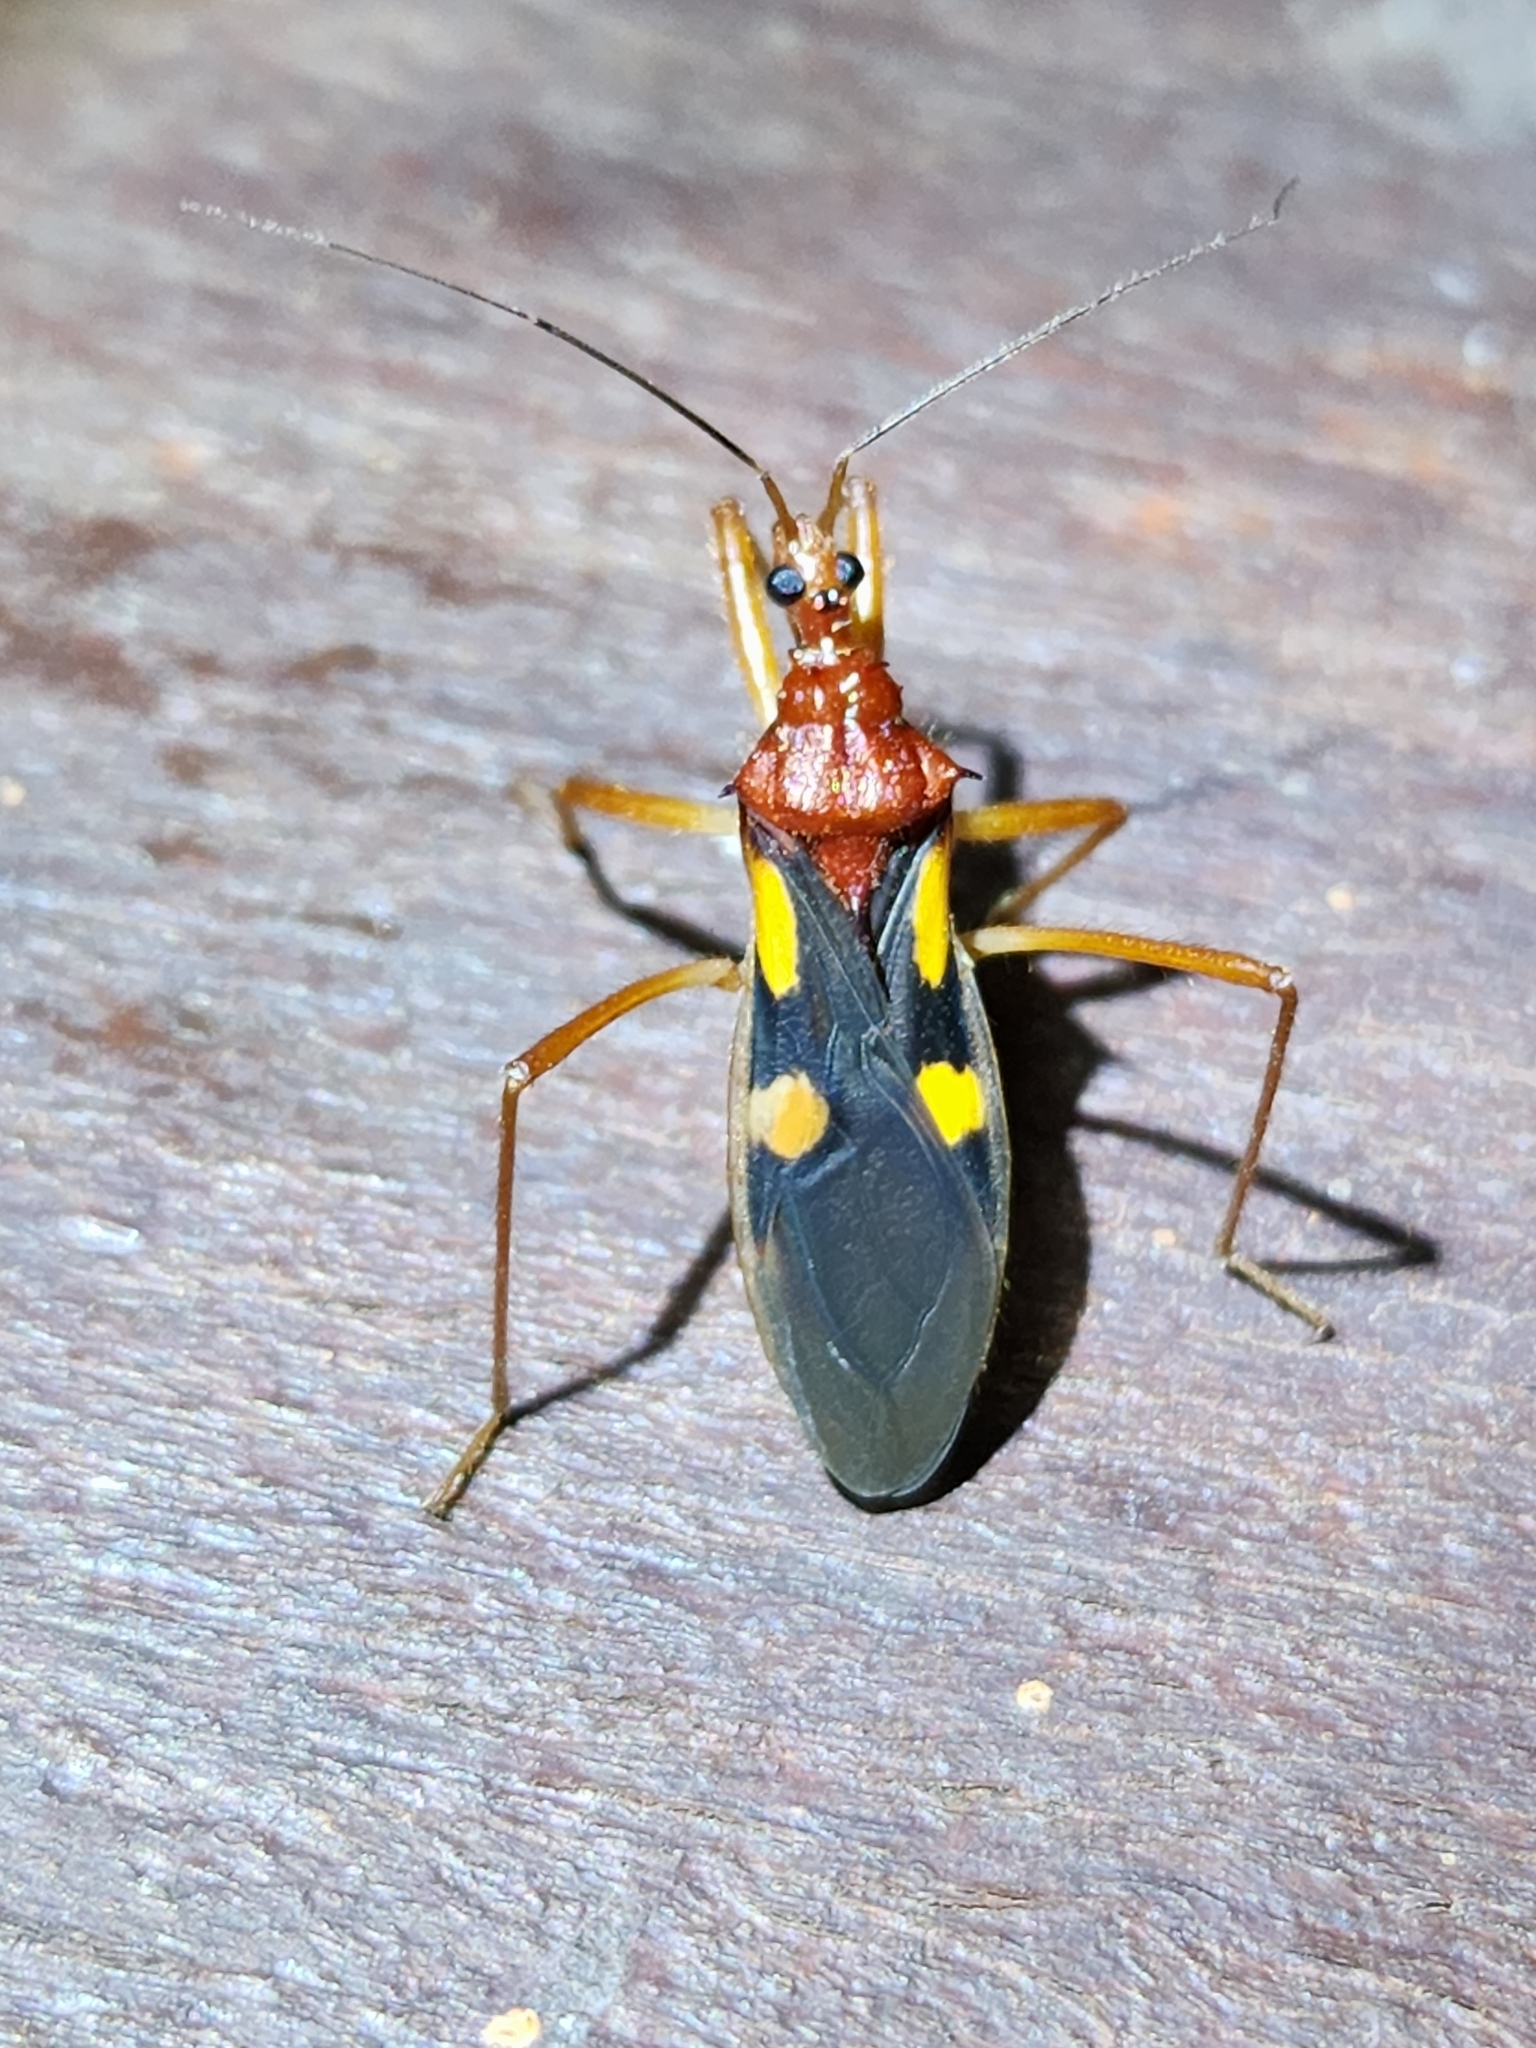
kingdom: Animalia
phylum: Arthropoda
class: Insecta
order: Hemiptera
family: Reduviidae
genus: Zelurus
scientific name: Zelurus transnominalis
